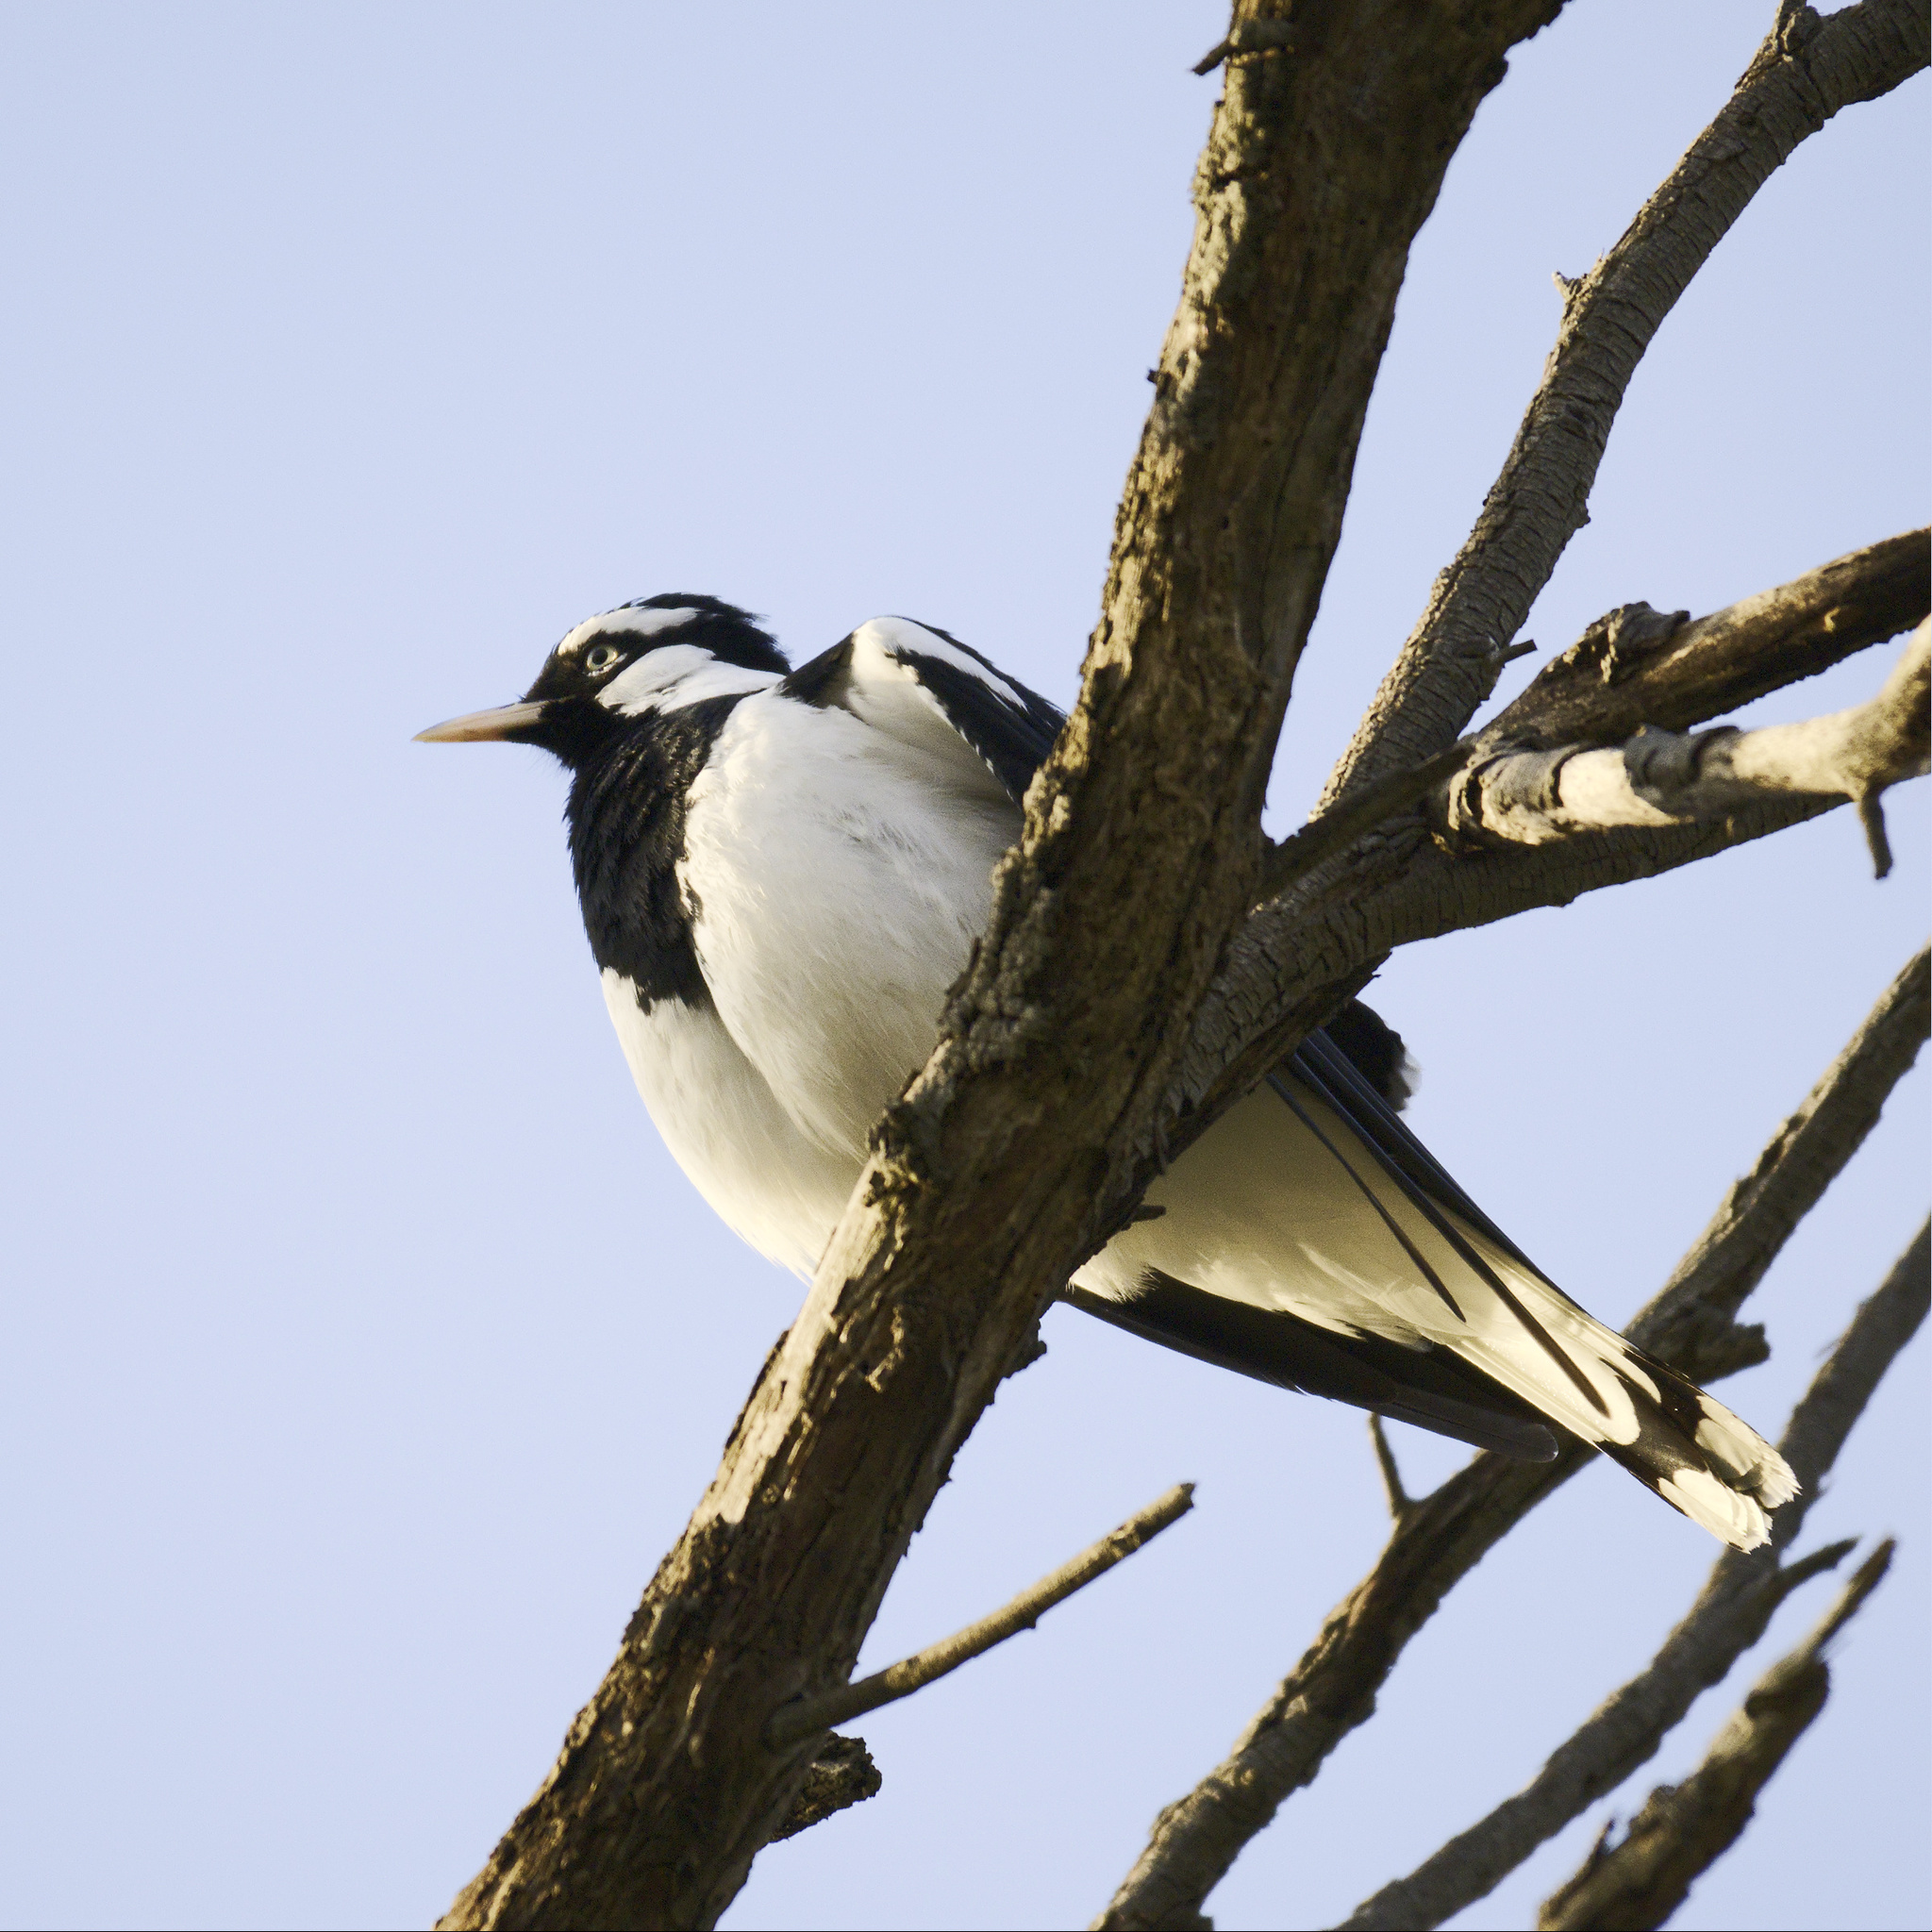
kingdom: Animalia
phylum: Chordata
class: Aves
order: Passeriformes
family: Monarchidae
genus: Grallina
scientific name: Grallina cyanoleuca
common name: Magpie-lark
